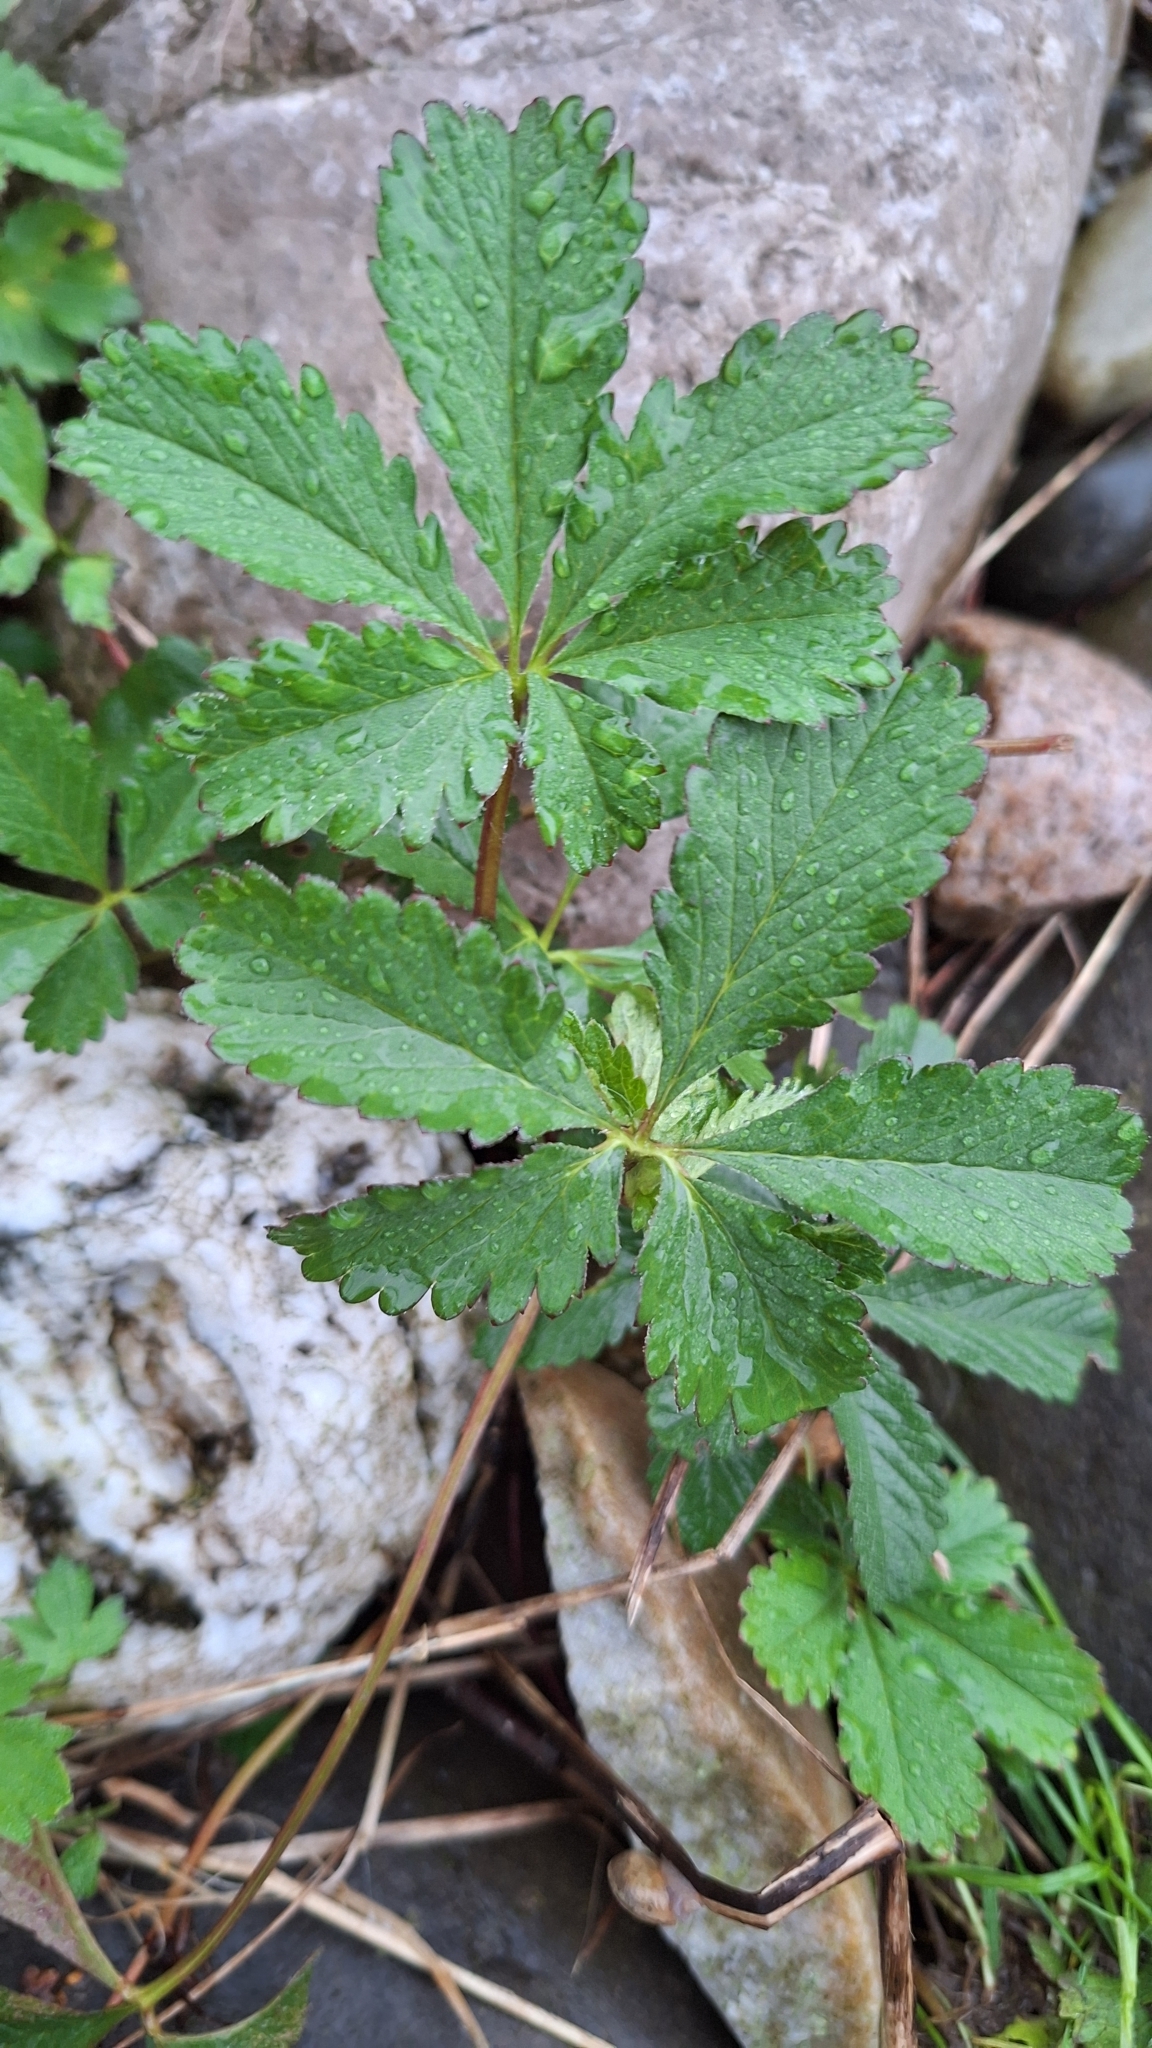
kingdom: Plantae
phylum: Tracheophyta
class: Magnoliopsida
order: Rosales
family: Rosaceae
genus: Potentilla
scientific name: Potentilla reptans
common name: Creeping cinquefoil
